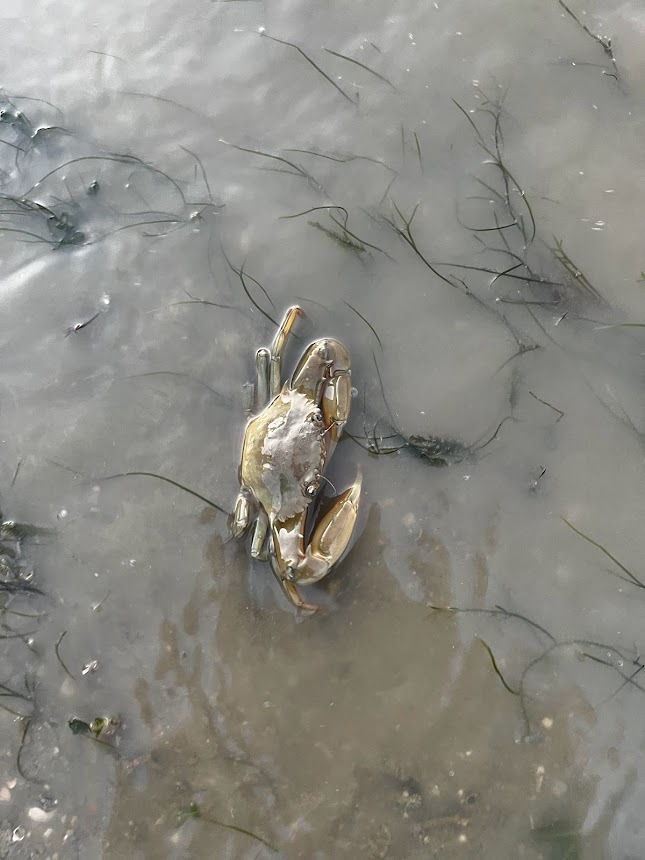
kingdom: Animalia
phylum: Arthropoda
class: Malacostraca
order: Decapoda
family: Portunidae
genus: Charybdis
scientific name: Charybdis anisodon
